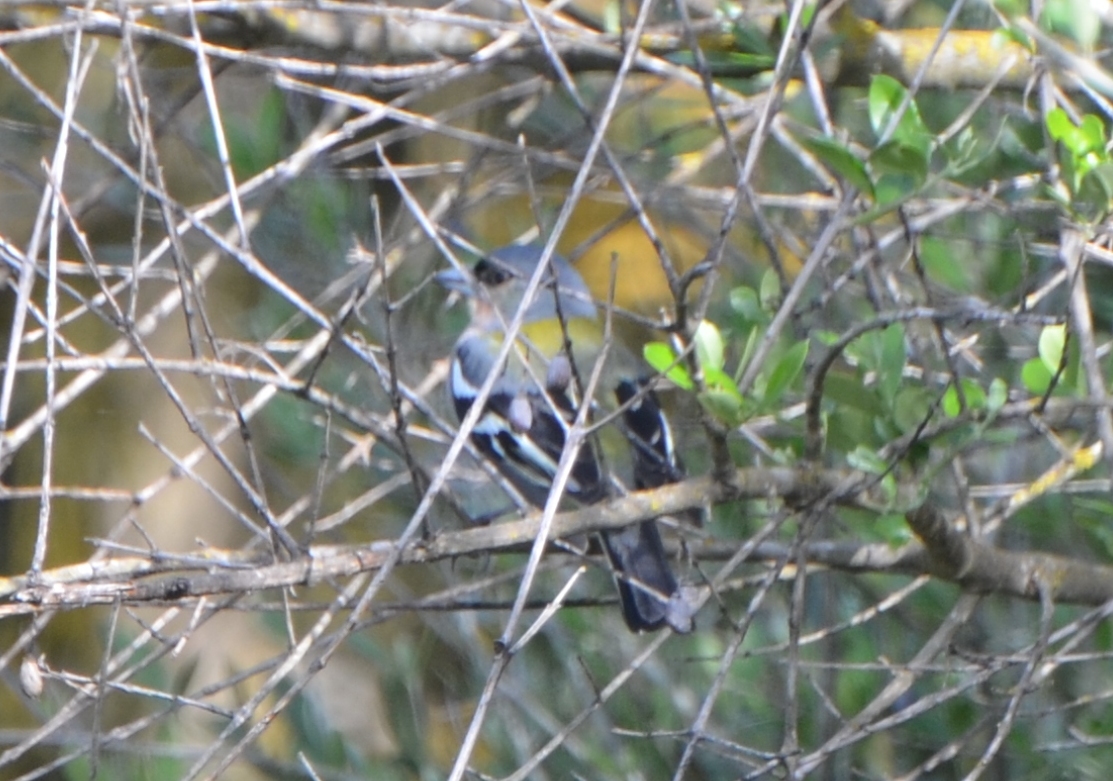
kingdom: Animalia
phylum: Chordata
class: Aves
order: Passeriformes
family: Fringillidae
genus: Fringilla
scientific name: Fringilla spodiogenys
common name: African chaffinch
